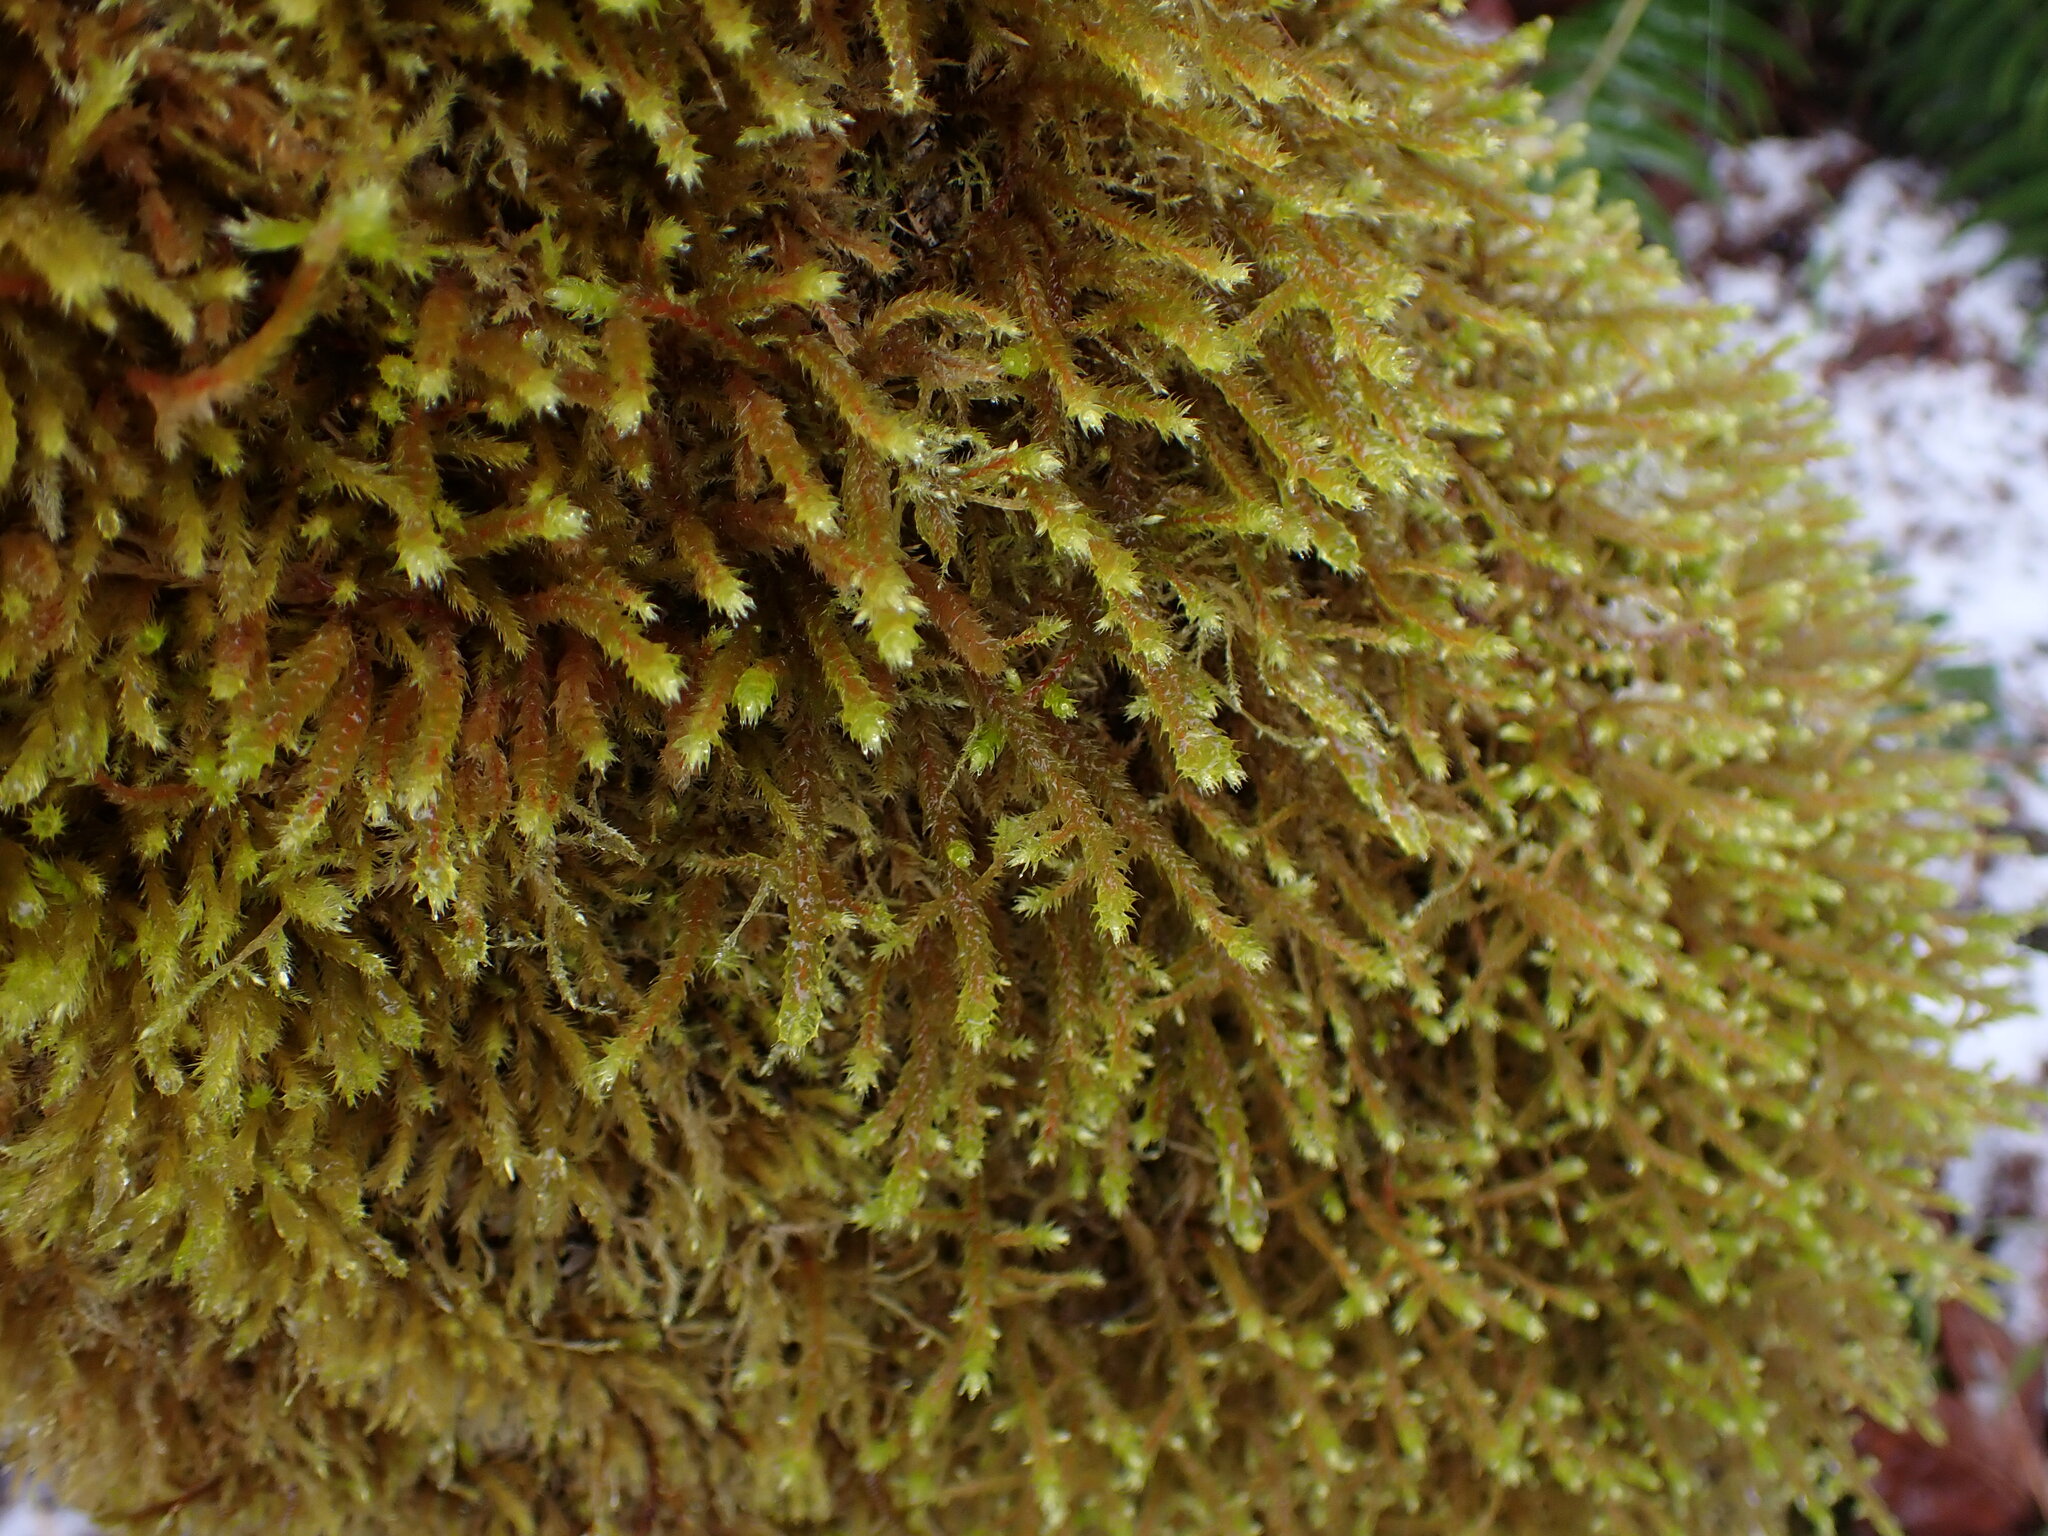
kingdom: Plantae
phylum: Bryophyta
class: Bryopsida
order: Hypnales
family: Antitrichiaceae
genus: Antitrichia
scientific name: Antitrichia curtipendula
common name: Pendulous wing-moss
